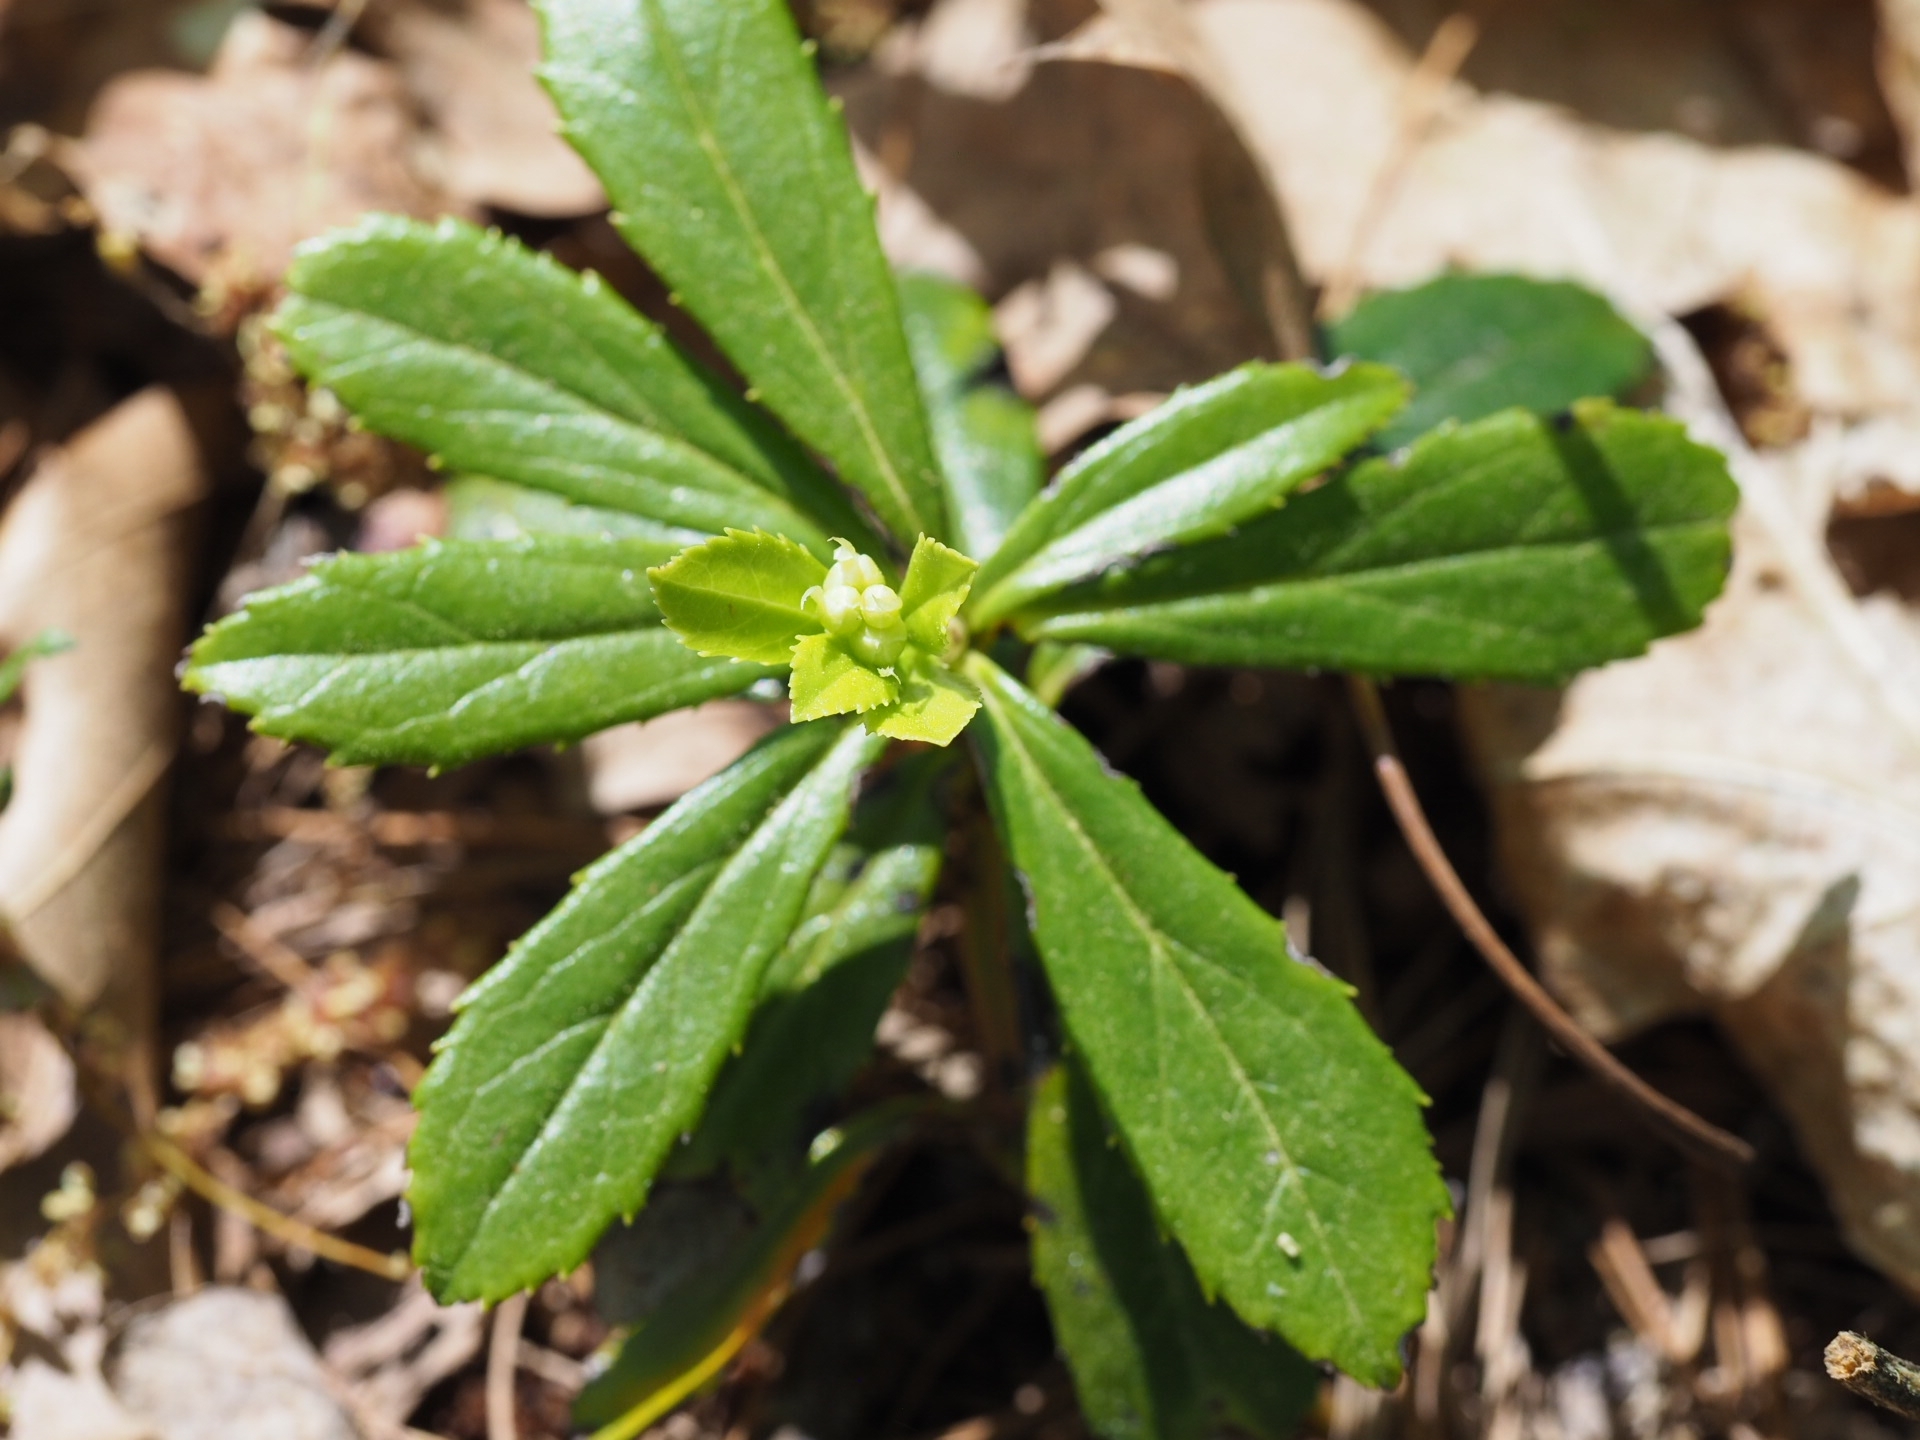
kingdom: Plantae
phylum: Tracheophyta
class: Magnoliopsida
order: Ericales
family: Ericaceae
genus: Chimaphila
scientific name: Chimaphila umbellata
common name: Pipsissewa
